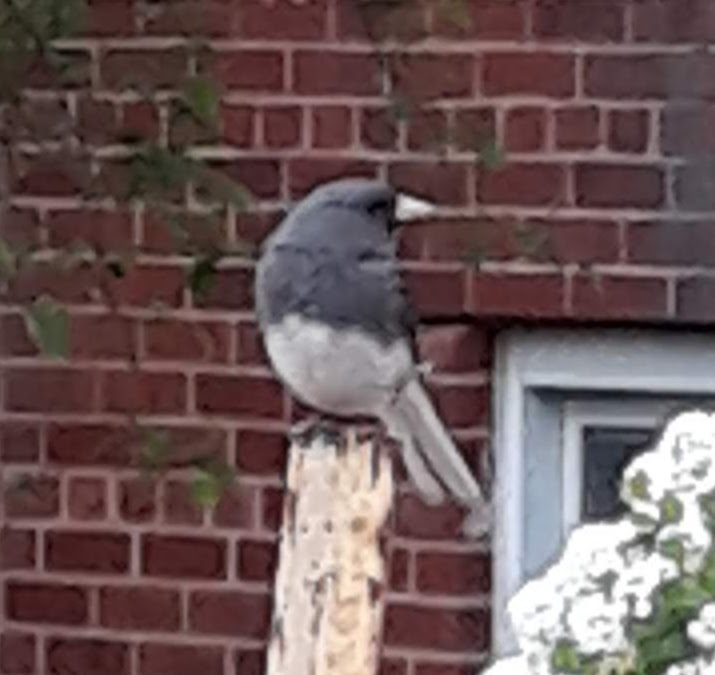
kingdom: Animalia
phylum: Chordata
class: Aves
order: Passeriformes
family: Passerellidae
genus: Junco
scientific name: Junco hyemalis
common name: Dark-eyed junco
